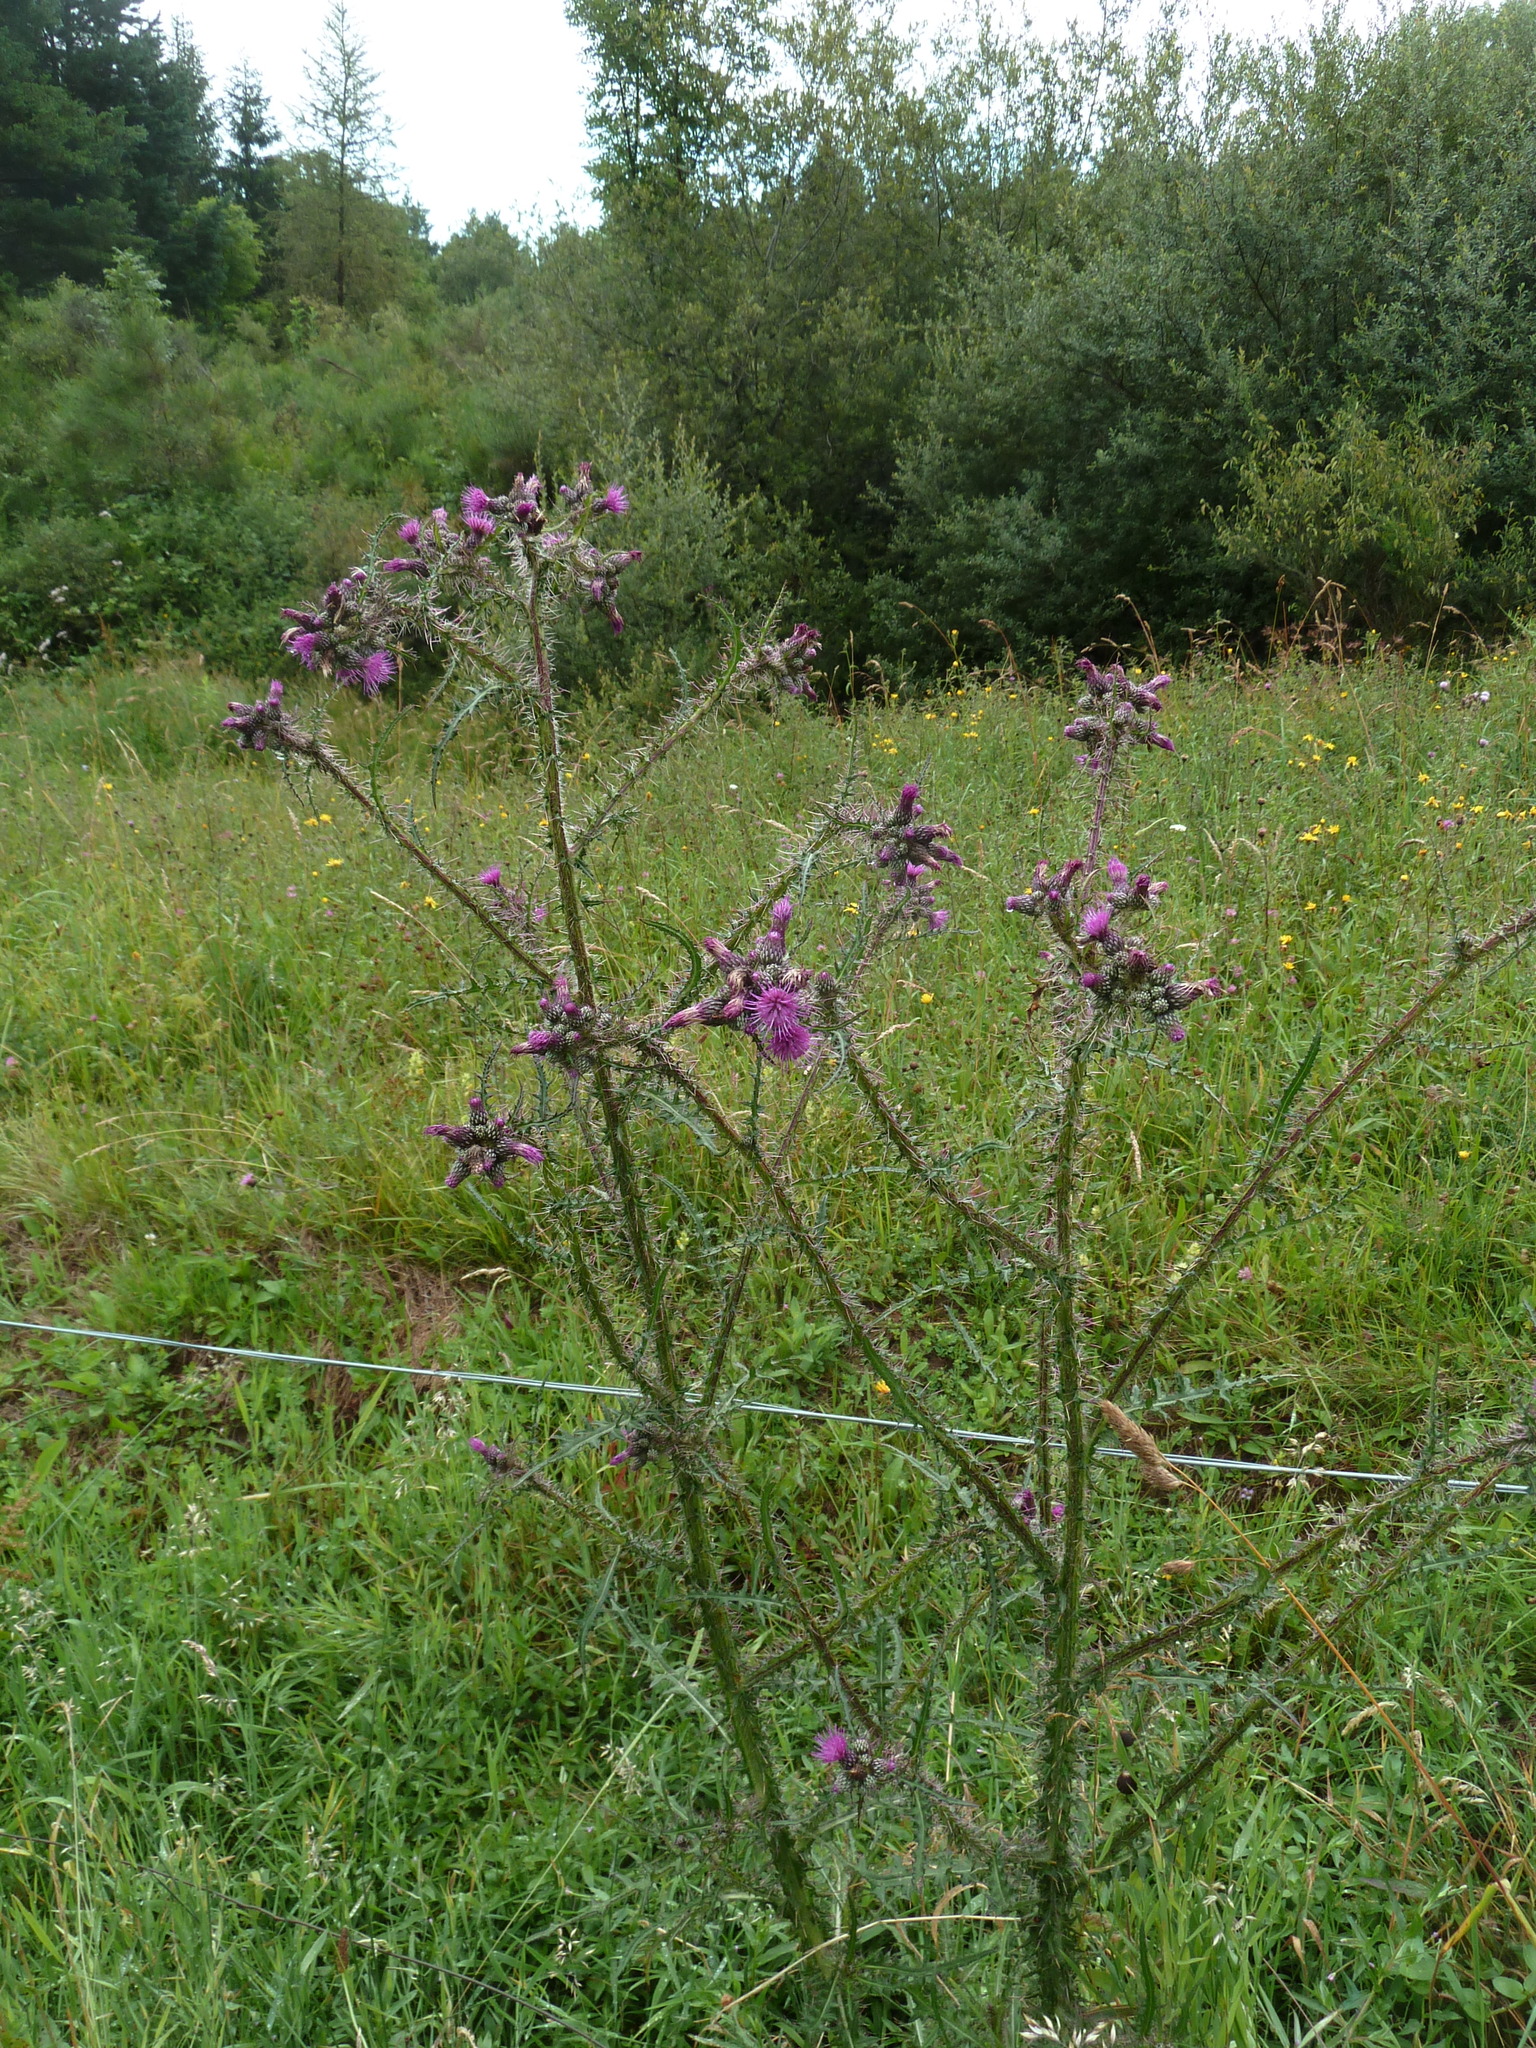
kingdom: Plantae
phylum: Tracheophyta
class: Magnoliopsida
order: Asterales
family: Asteraceae
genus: Cirsium
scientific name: Cirsium palustre
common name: Marsh thistle
